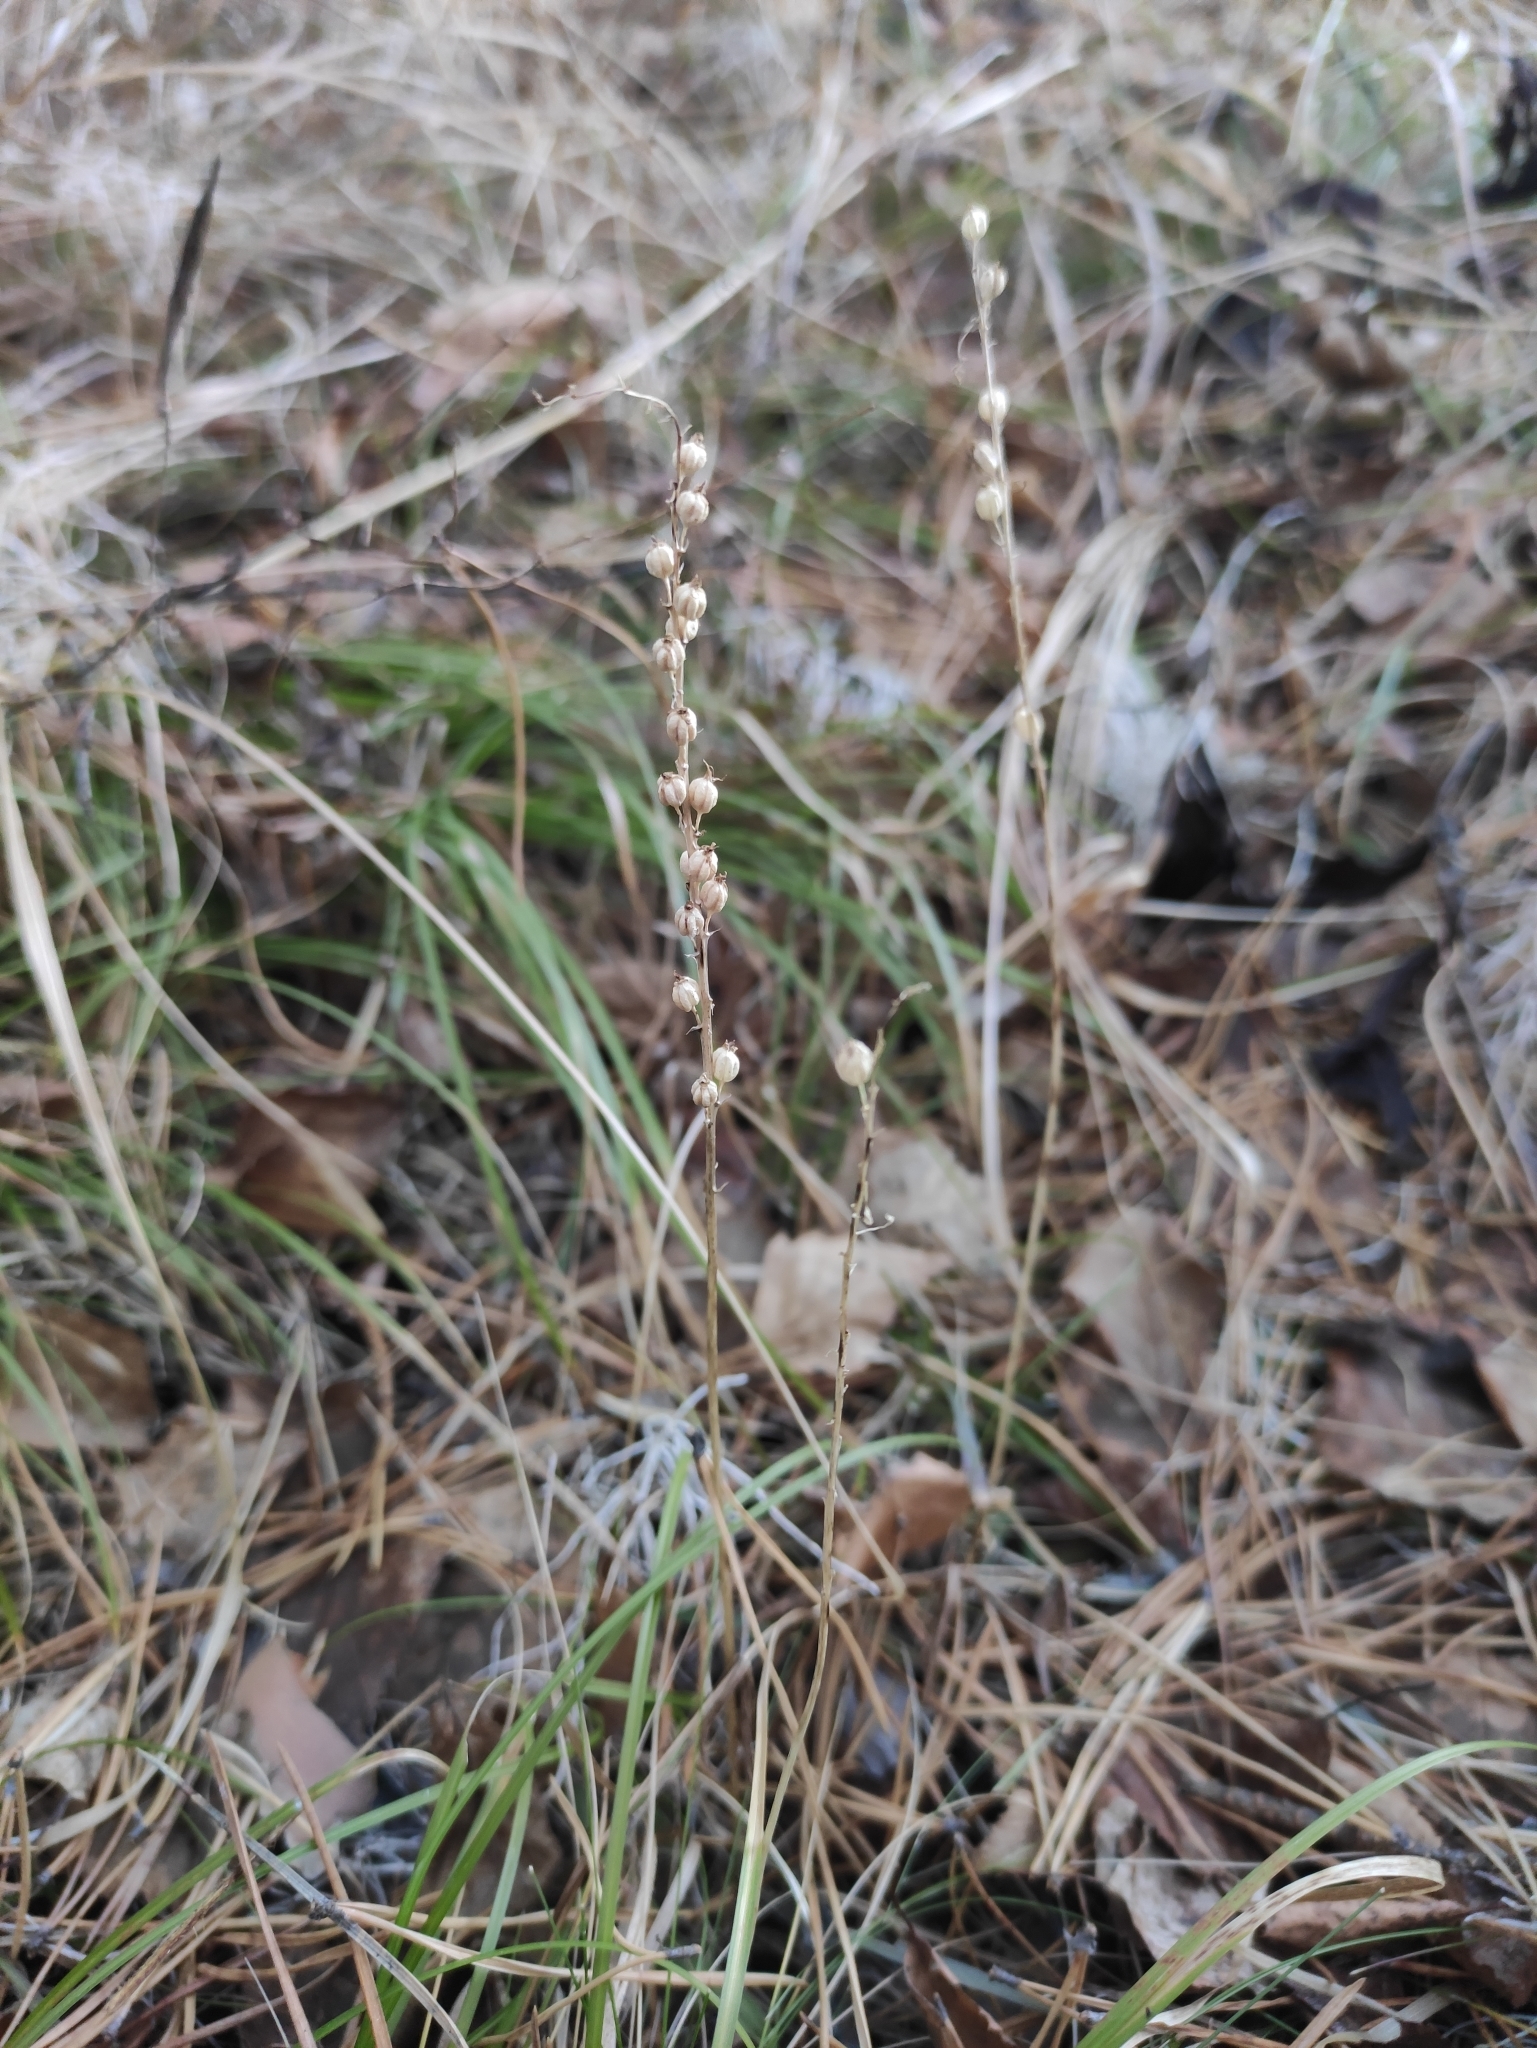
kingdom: Plantae
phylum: Tracheophyta
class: Liliopsida
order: Asparagales
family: Orchidaceae
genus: Malaxis
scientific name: Malaxis monophyllos
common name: White adder's-mouth
